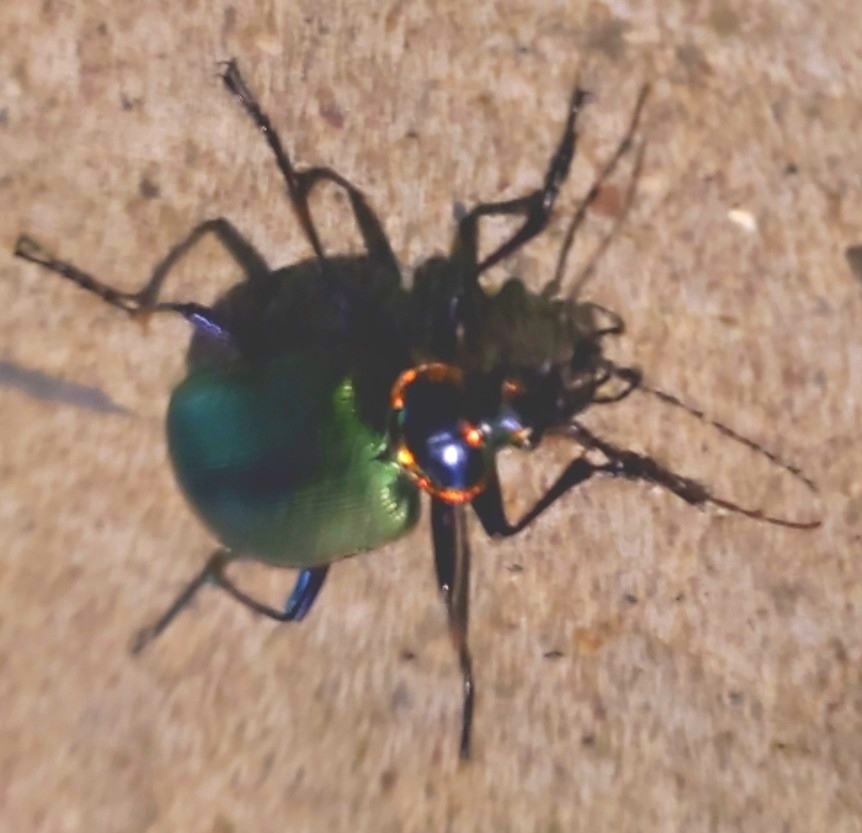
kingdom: Animalia
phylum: Arthropoda
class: Insecta
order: Coleoptera
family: Carabidae
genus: Calosoma
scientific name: Calosoma scrutator
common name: Fiery searcher beetle
